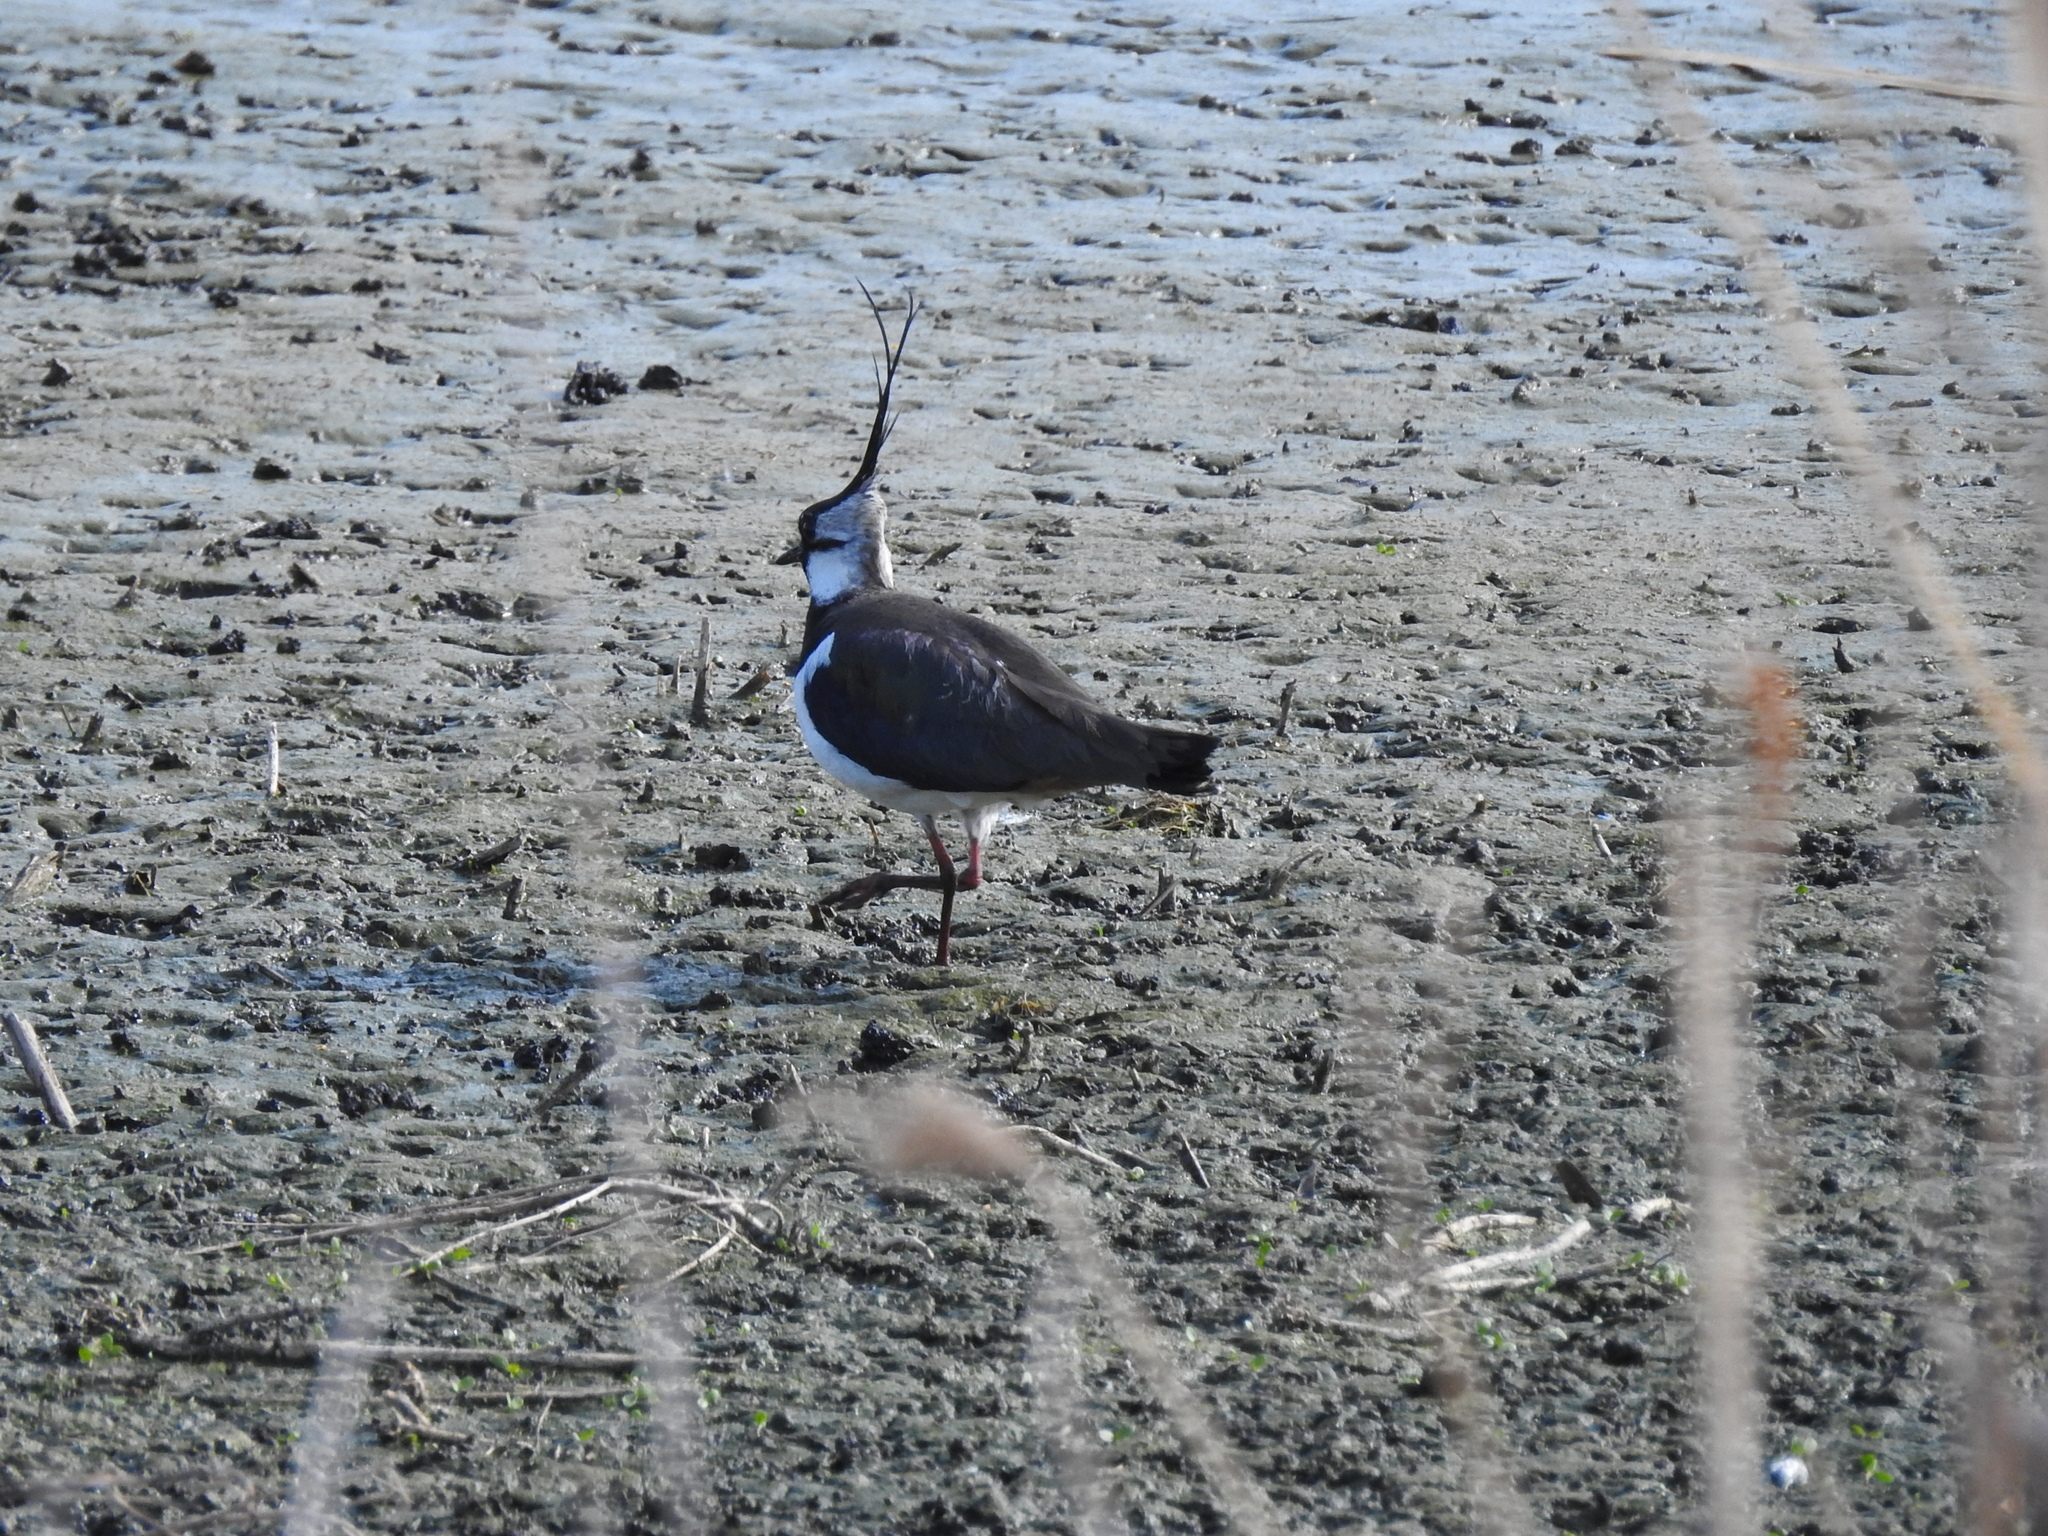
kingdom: Animalia
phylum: Chordata
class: Aves
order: Charadriiformes
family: Charadriidae
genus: Vanellus
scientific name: Vanellus vanellus
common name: Northern lapwing
